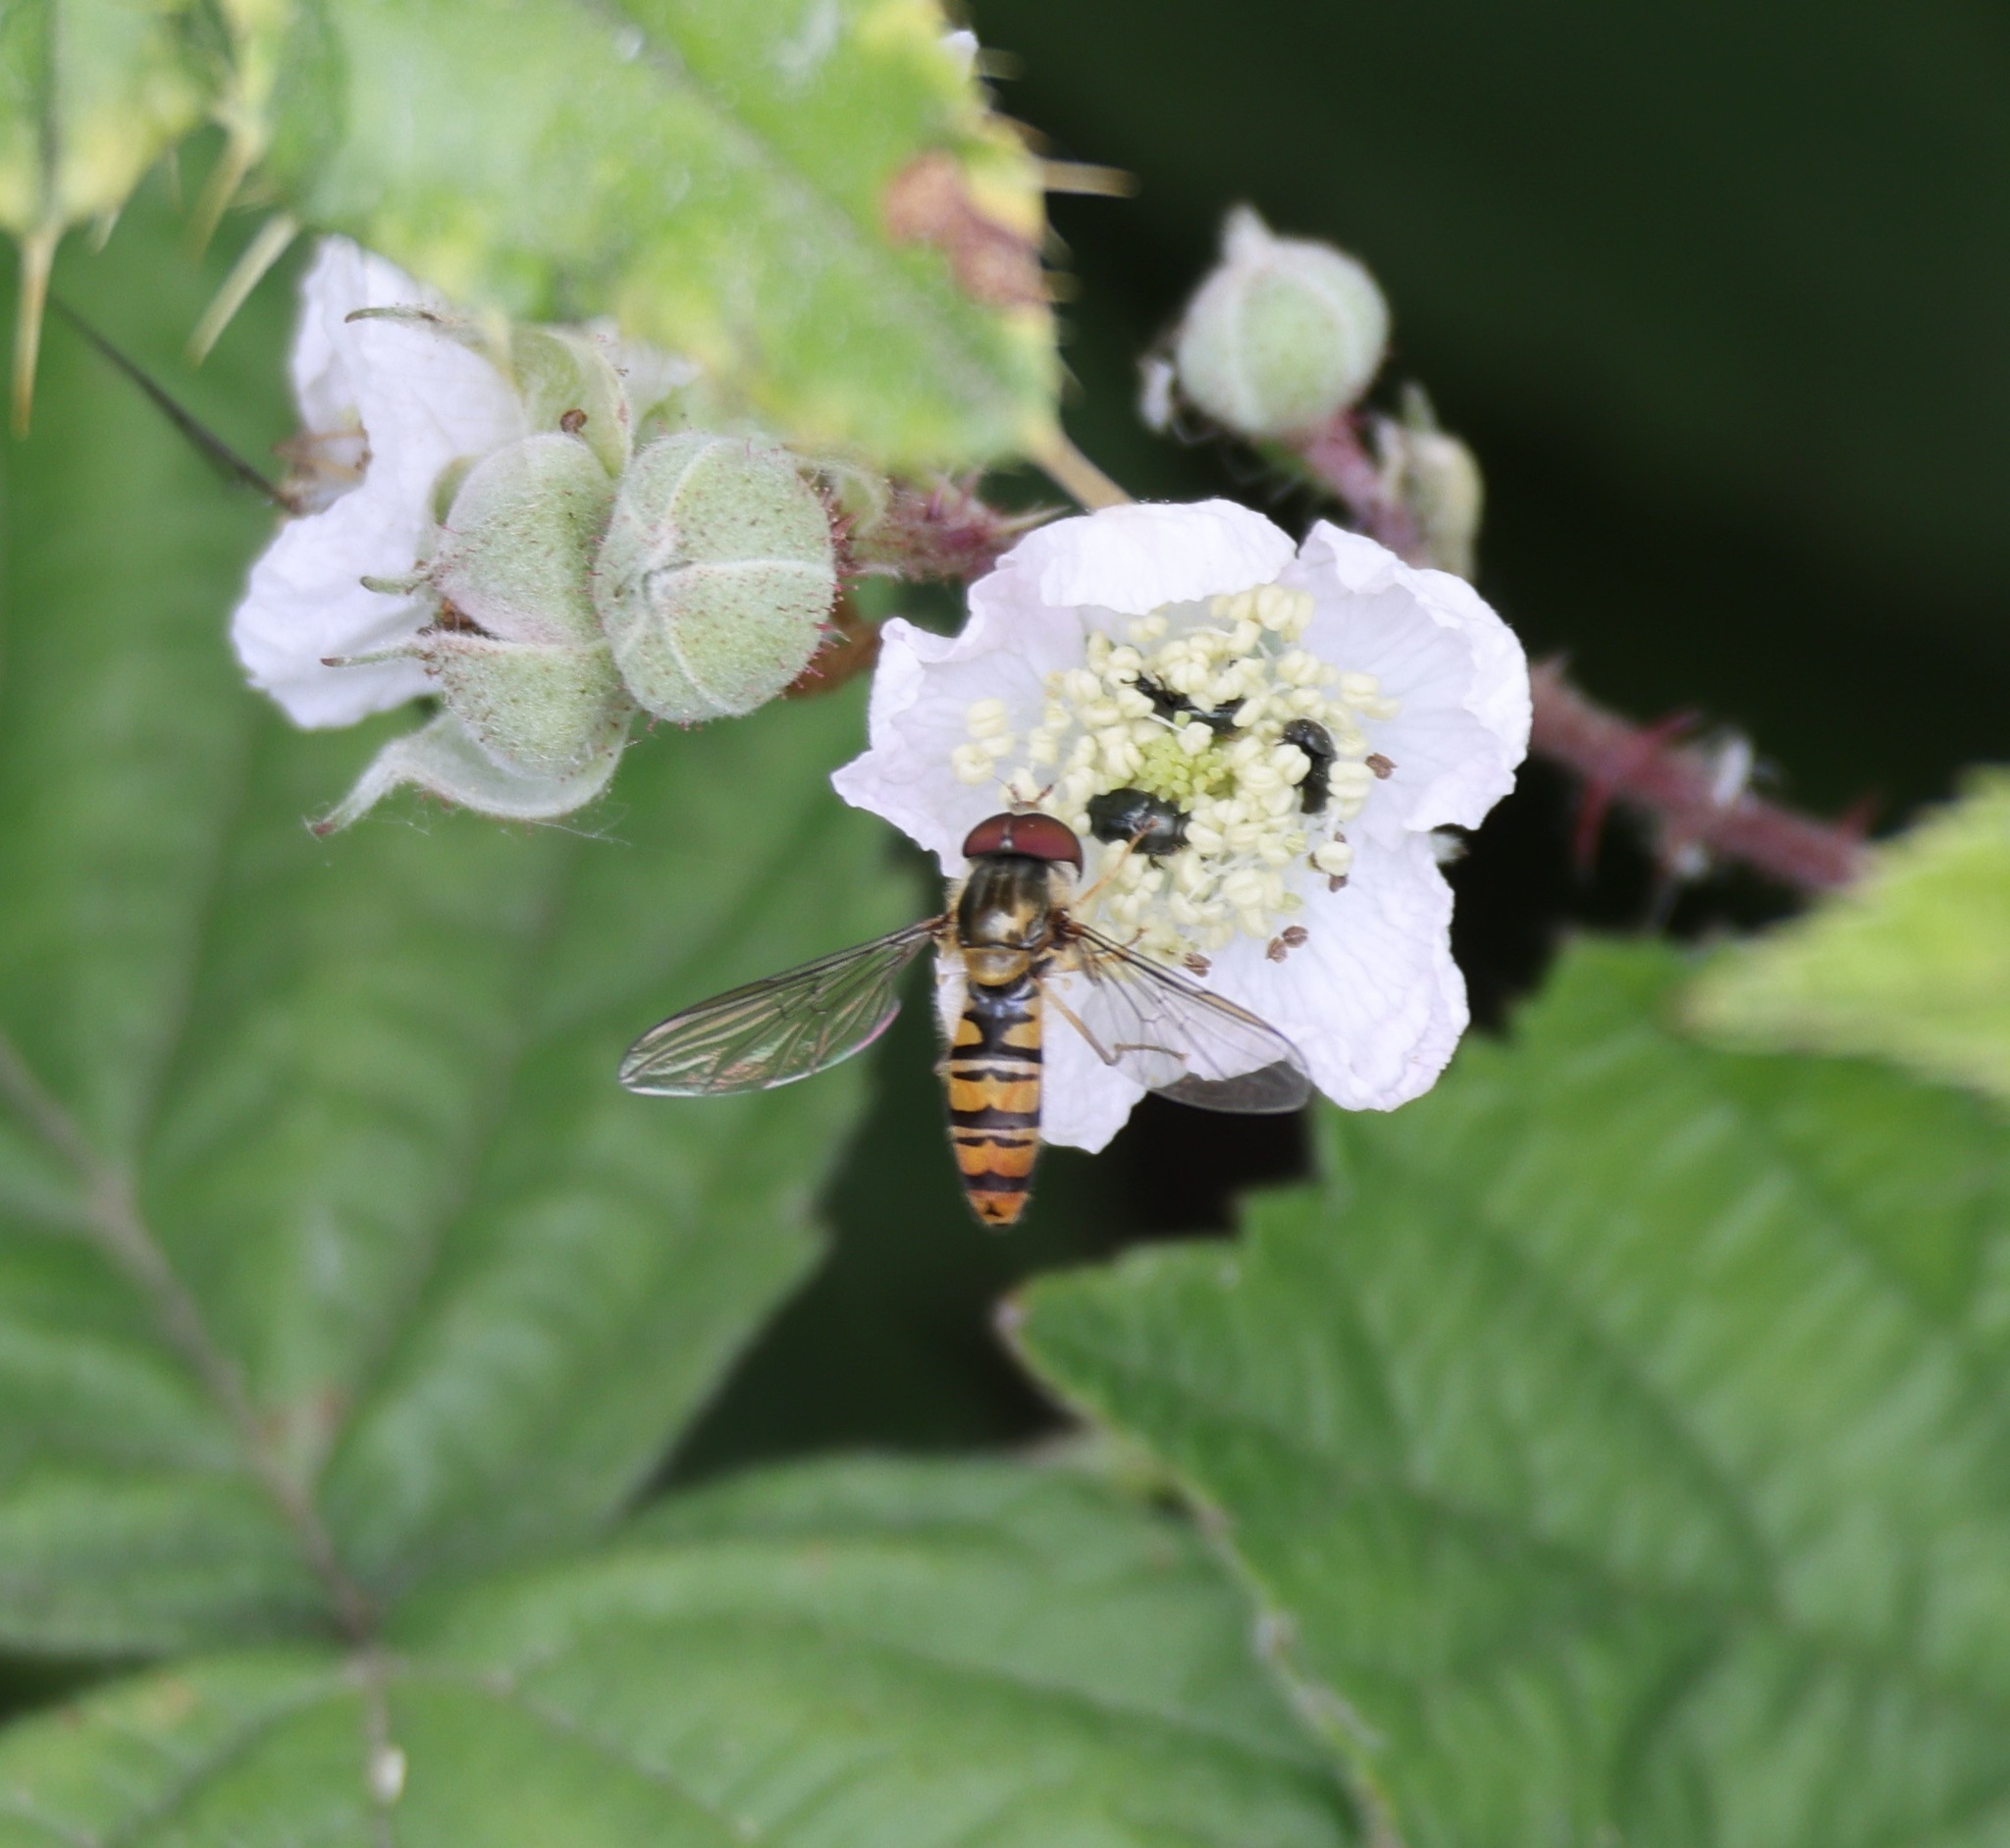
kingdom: Animalia
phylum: Arthropoda
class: Insecta
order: Diptera
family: Syrphidae
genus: Episyrphus
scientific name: Episyrphus balteatus
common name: Marmalade hoverfly
